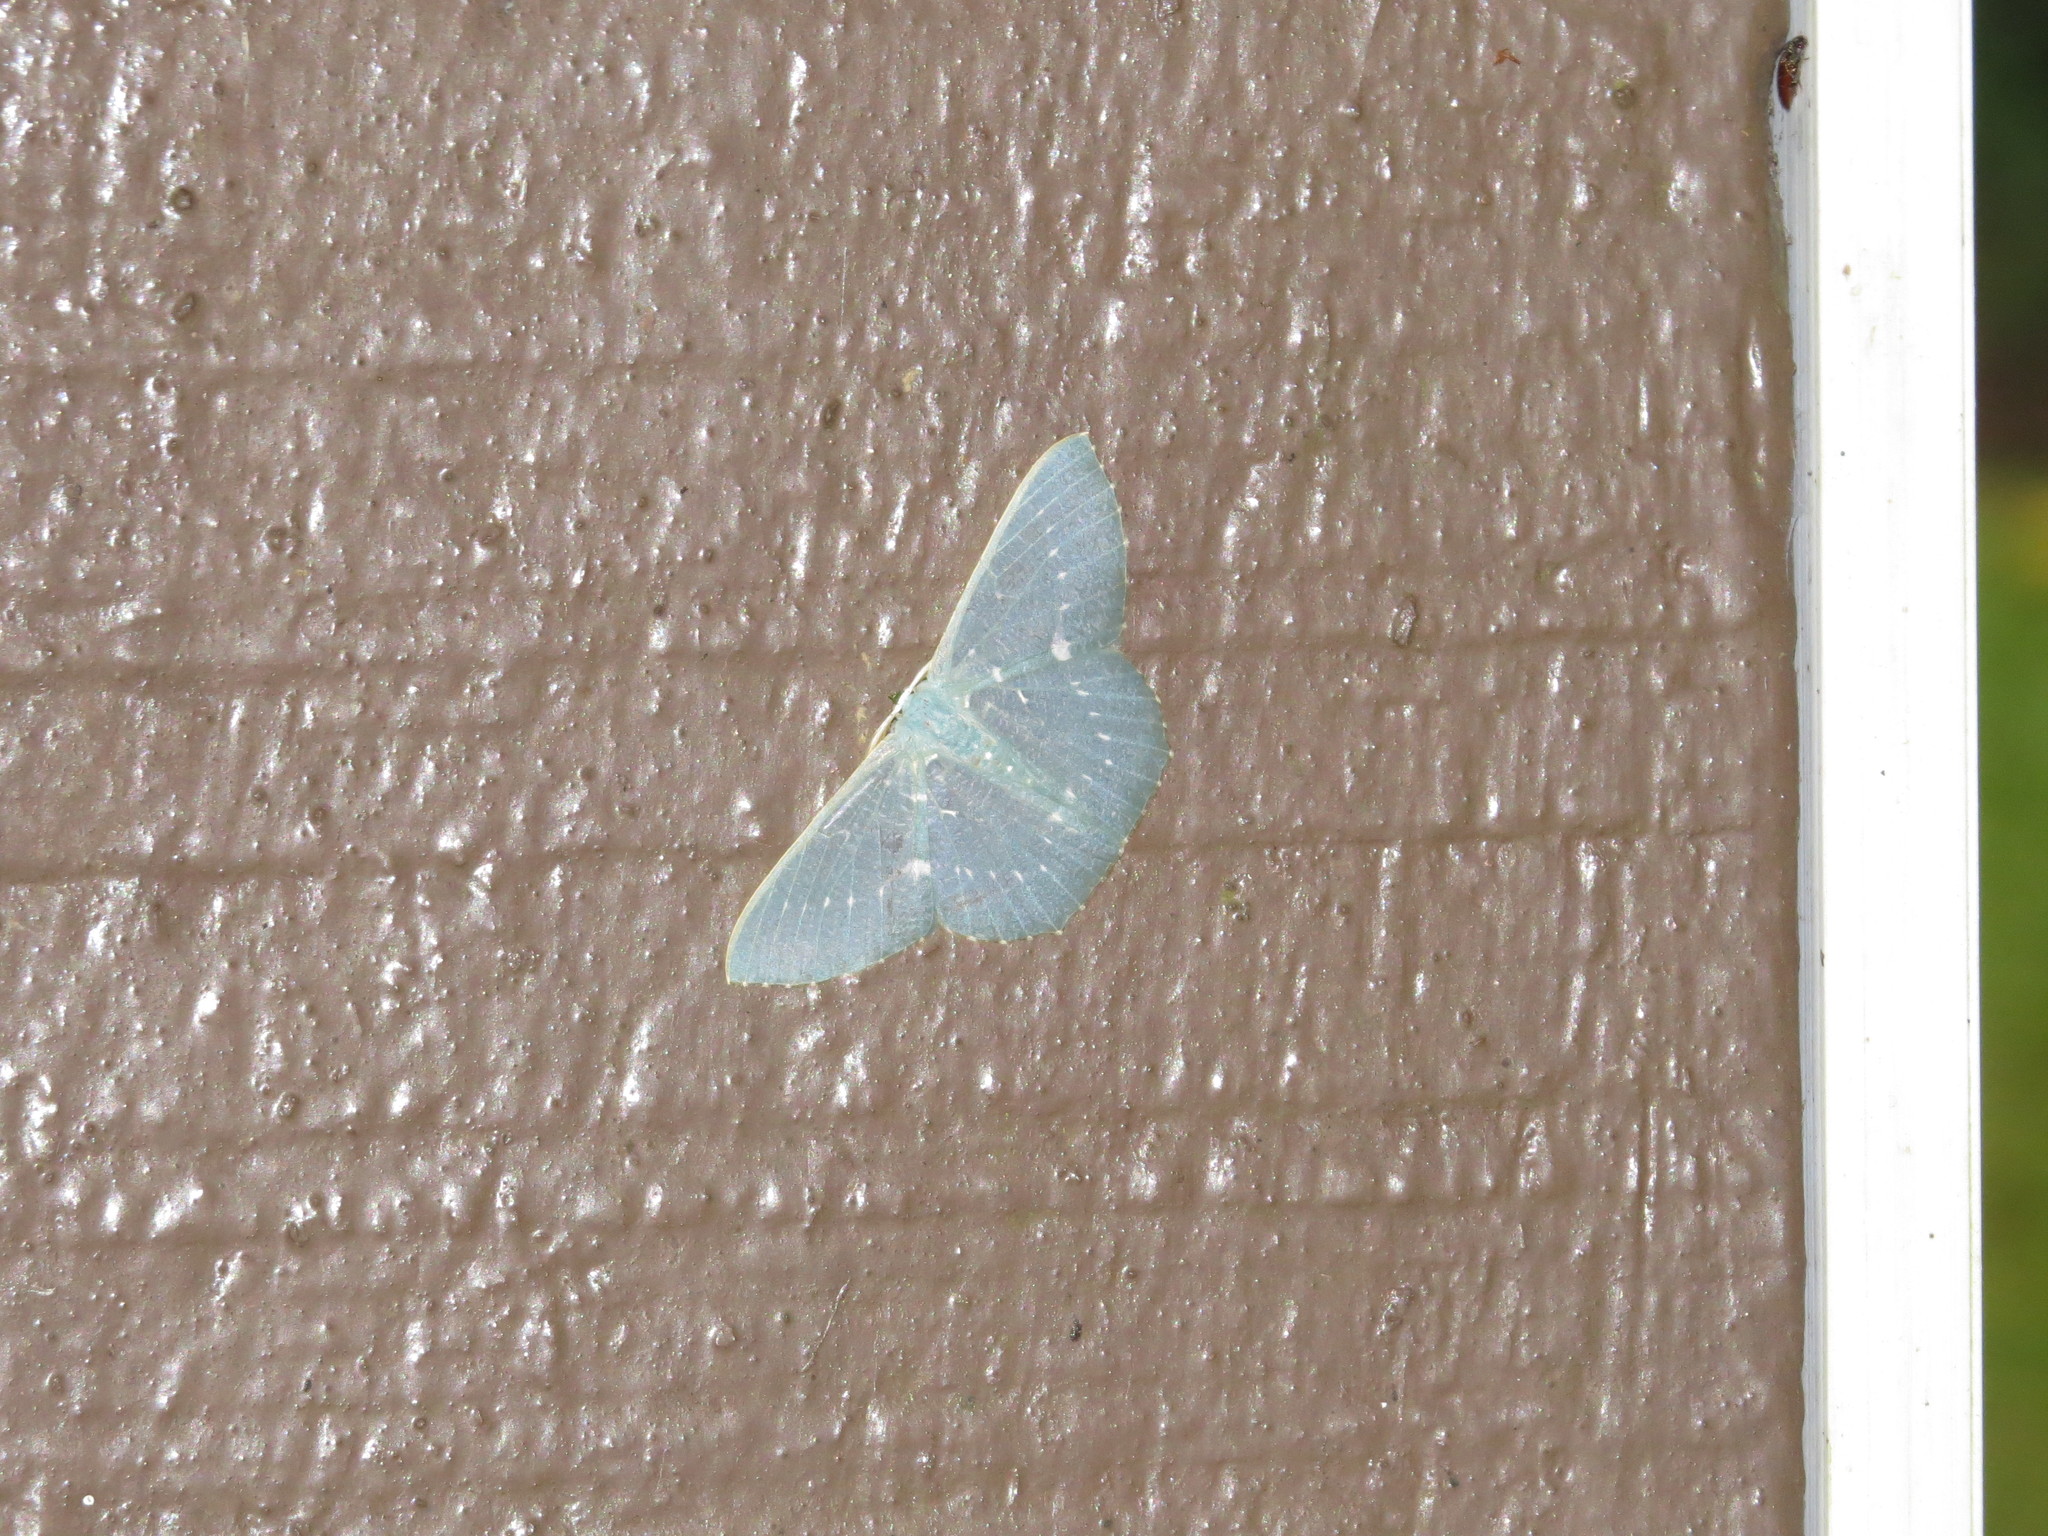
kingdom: Animalia
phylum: Arthropoda
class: Insecta
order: Lepidoptera
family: Geometridae
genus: Orothalassodes
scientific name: Orothalassodes retaka
